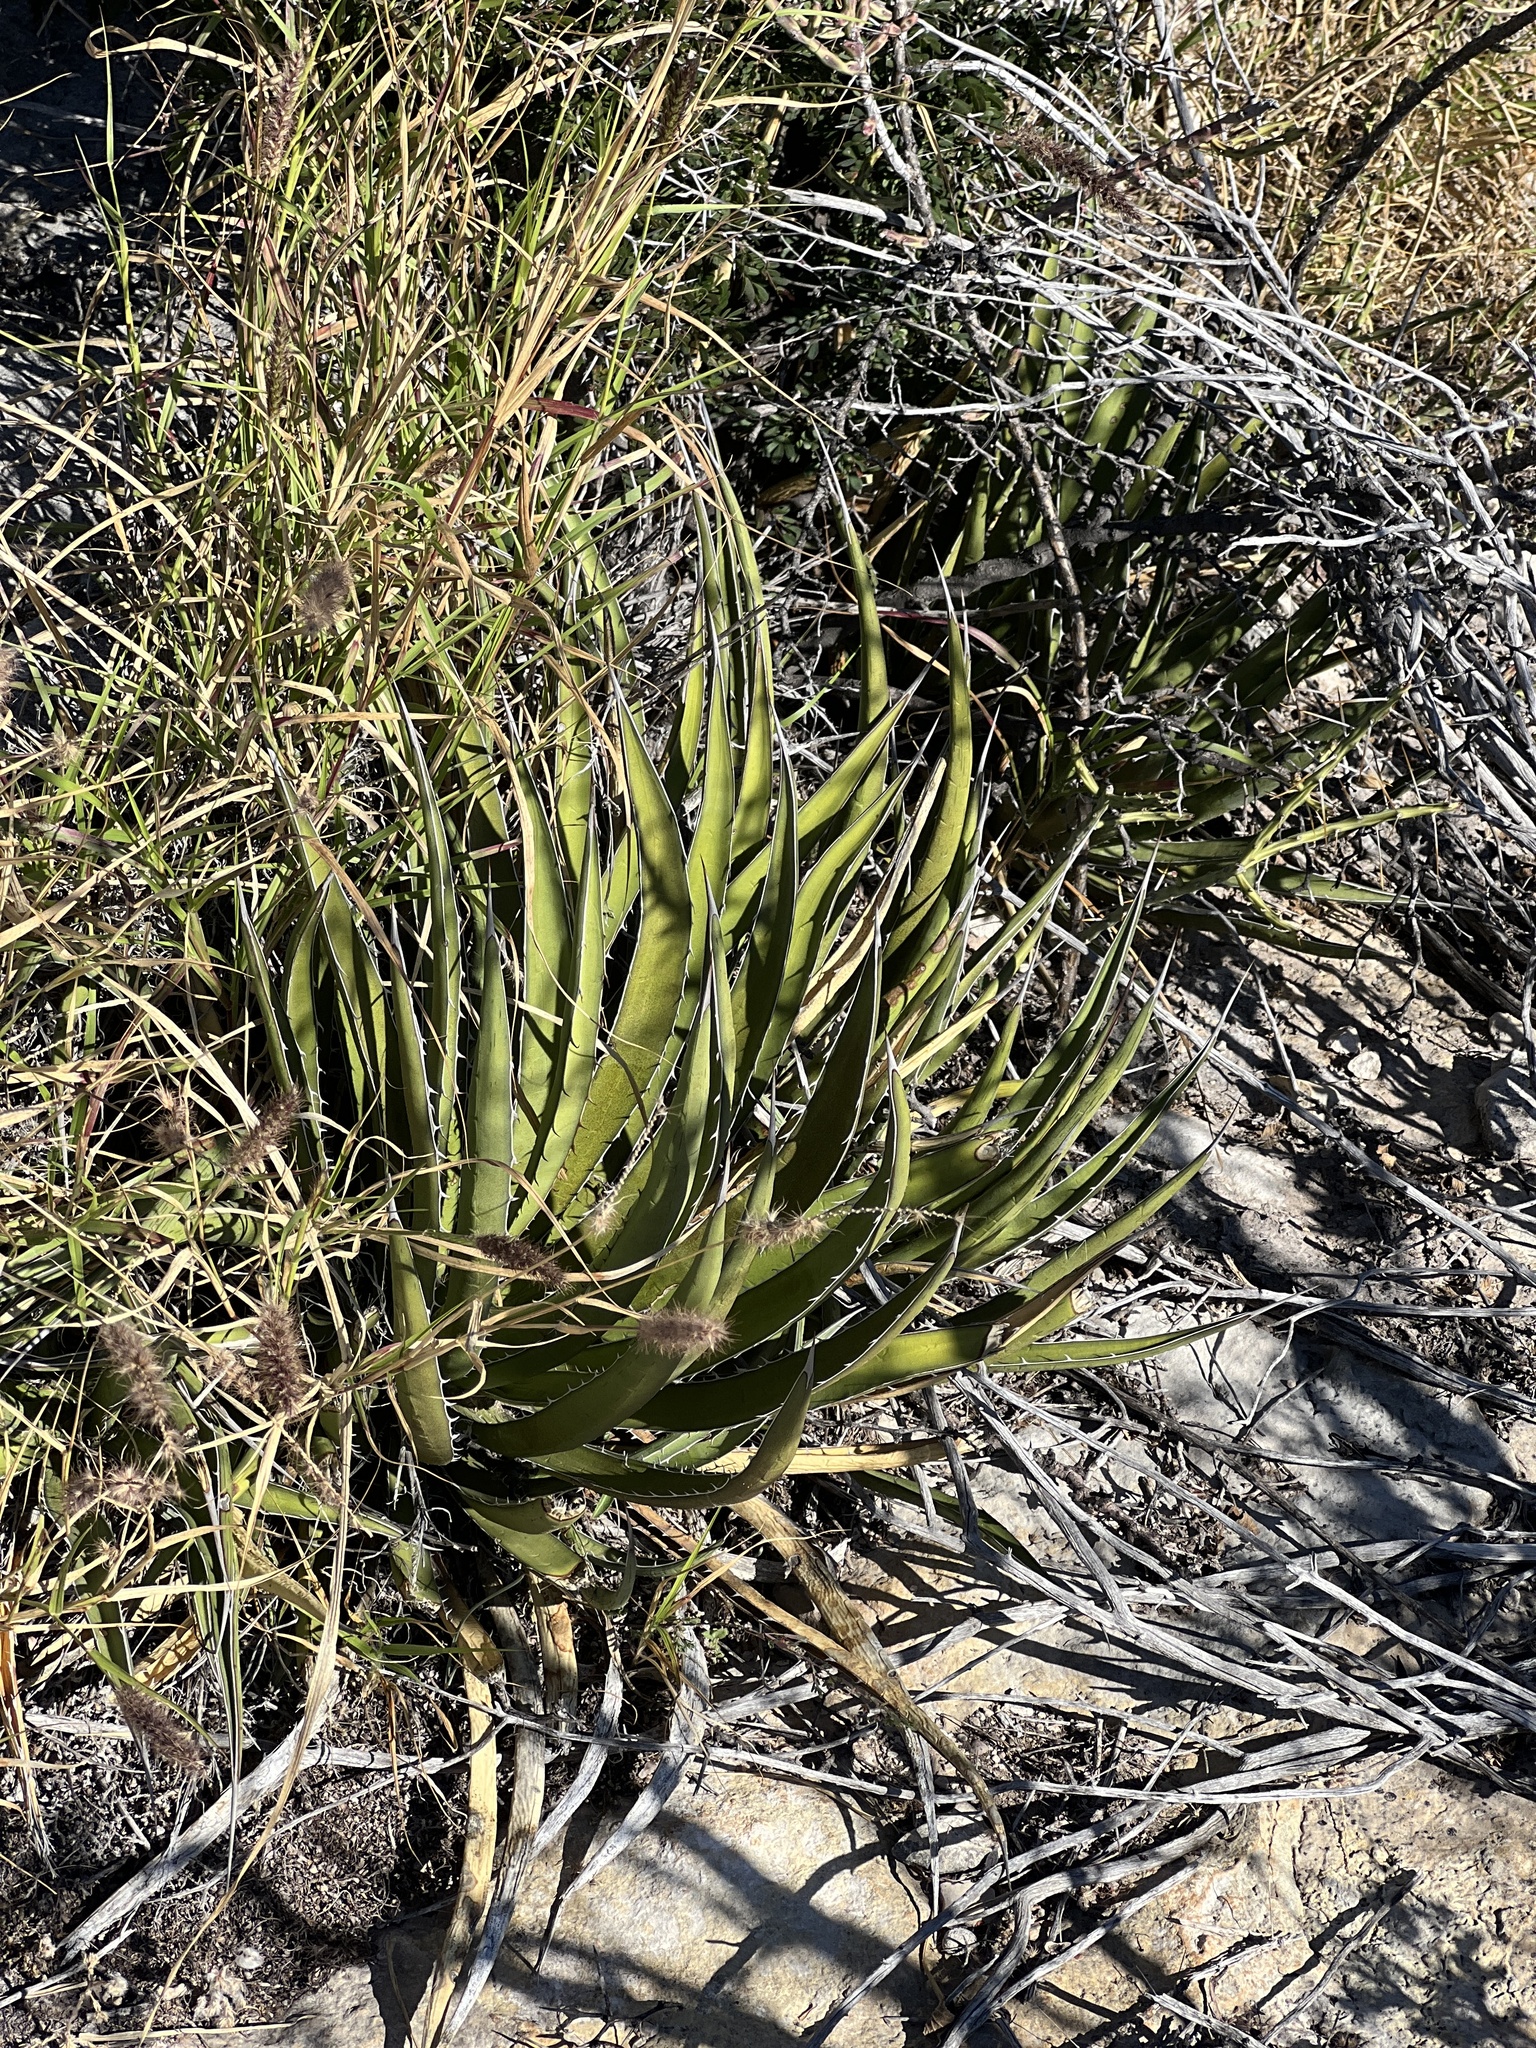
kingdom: Plantae
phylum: Tracheophyta
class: Liliopsida
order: Asparagales
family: Asparagaceae
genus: Agave
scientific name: Agave lechuguilla
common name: Lecheguilla agave
